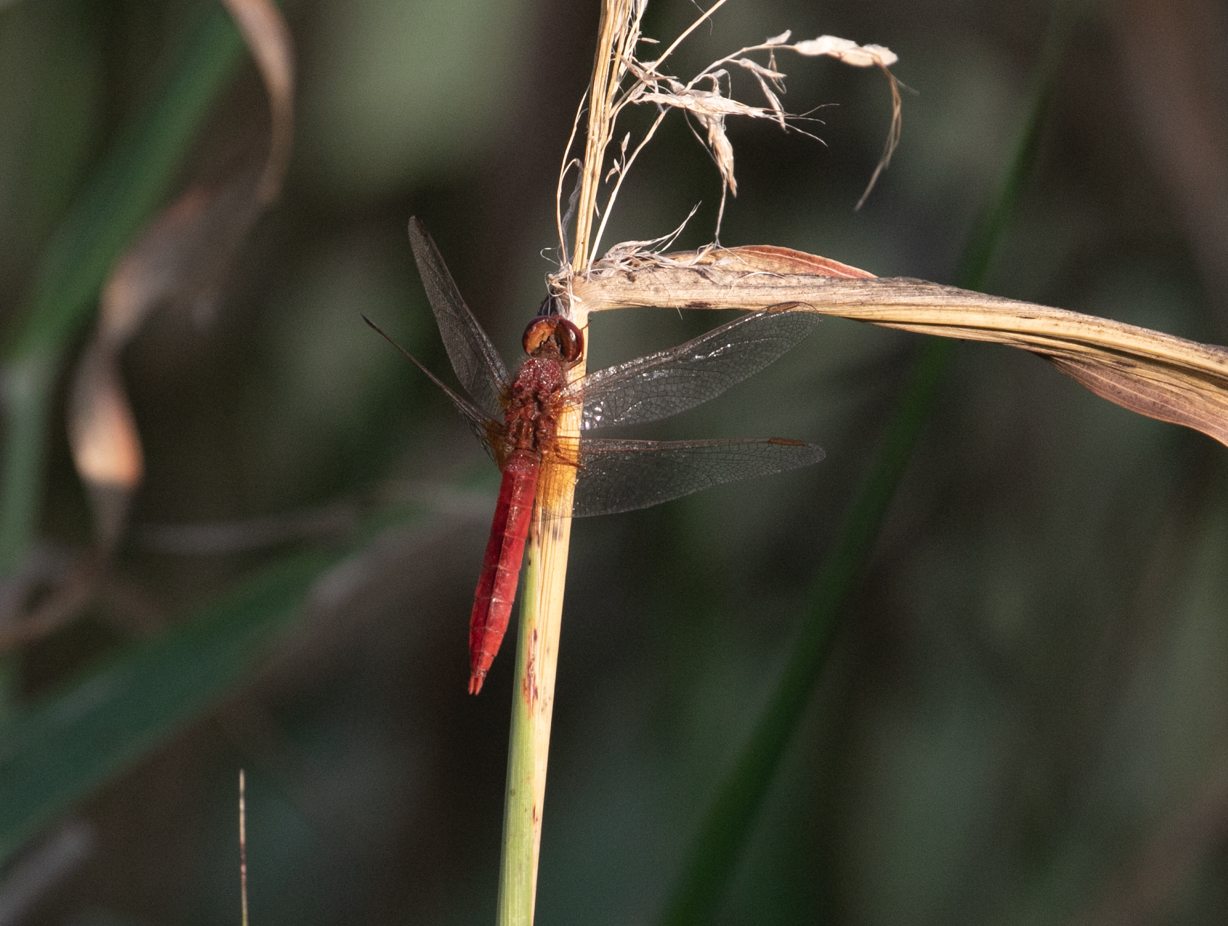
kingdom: Animalia
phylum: Arthropoda
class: Insecta
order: Odonata
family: Libellulidae
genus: Crocothemis
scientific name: Crocothemis erythraea
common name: Scarlet dragonfly
